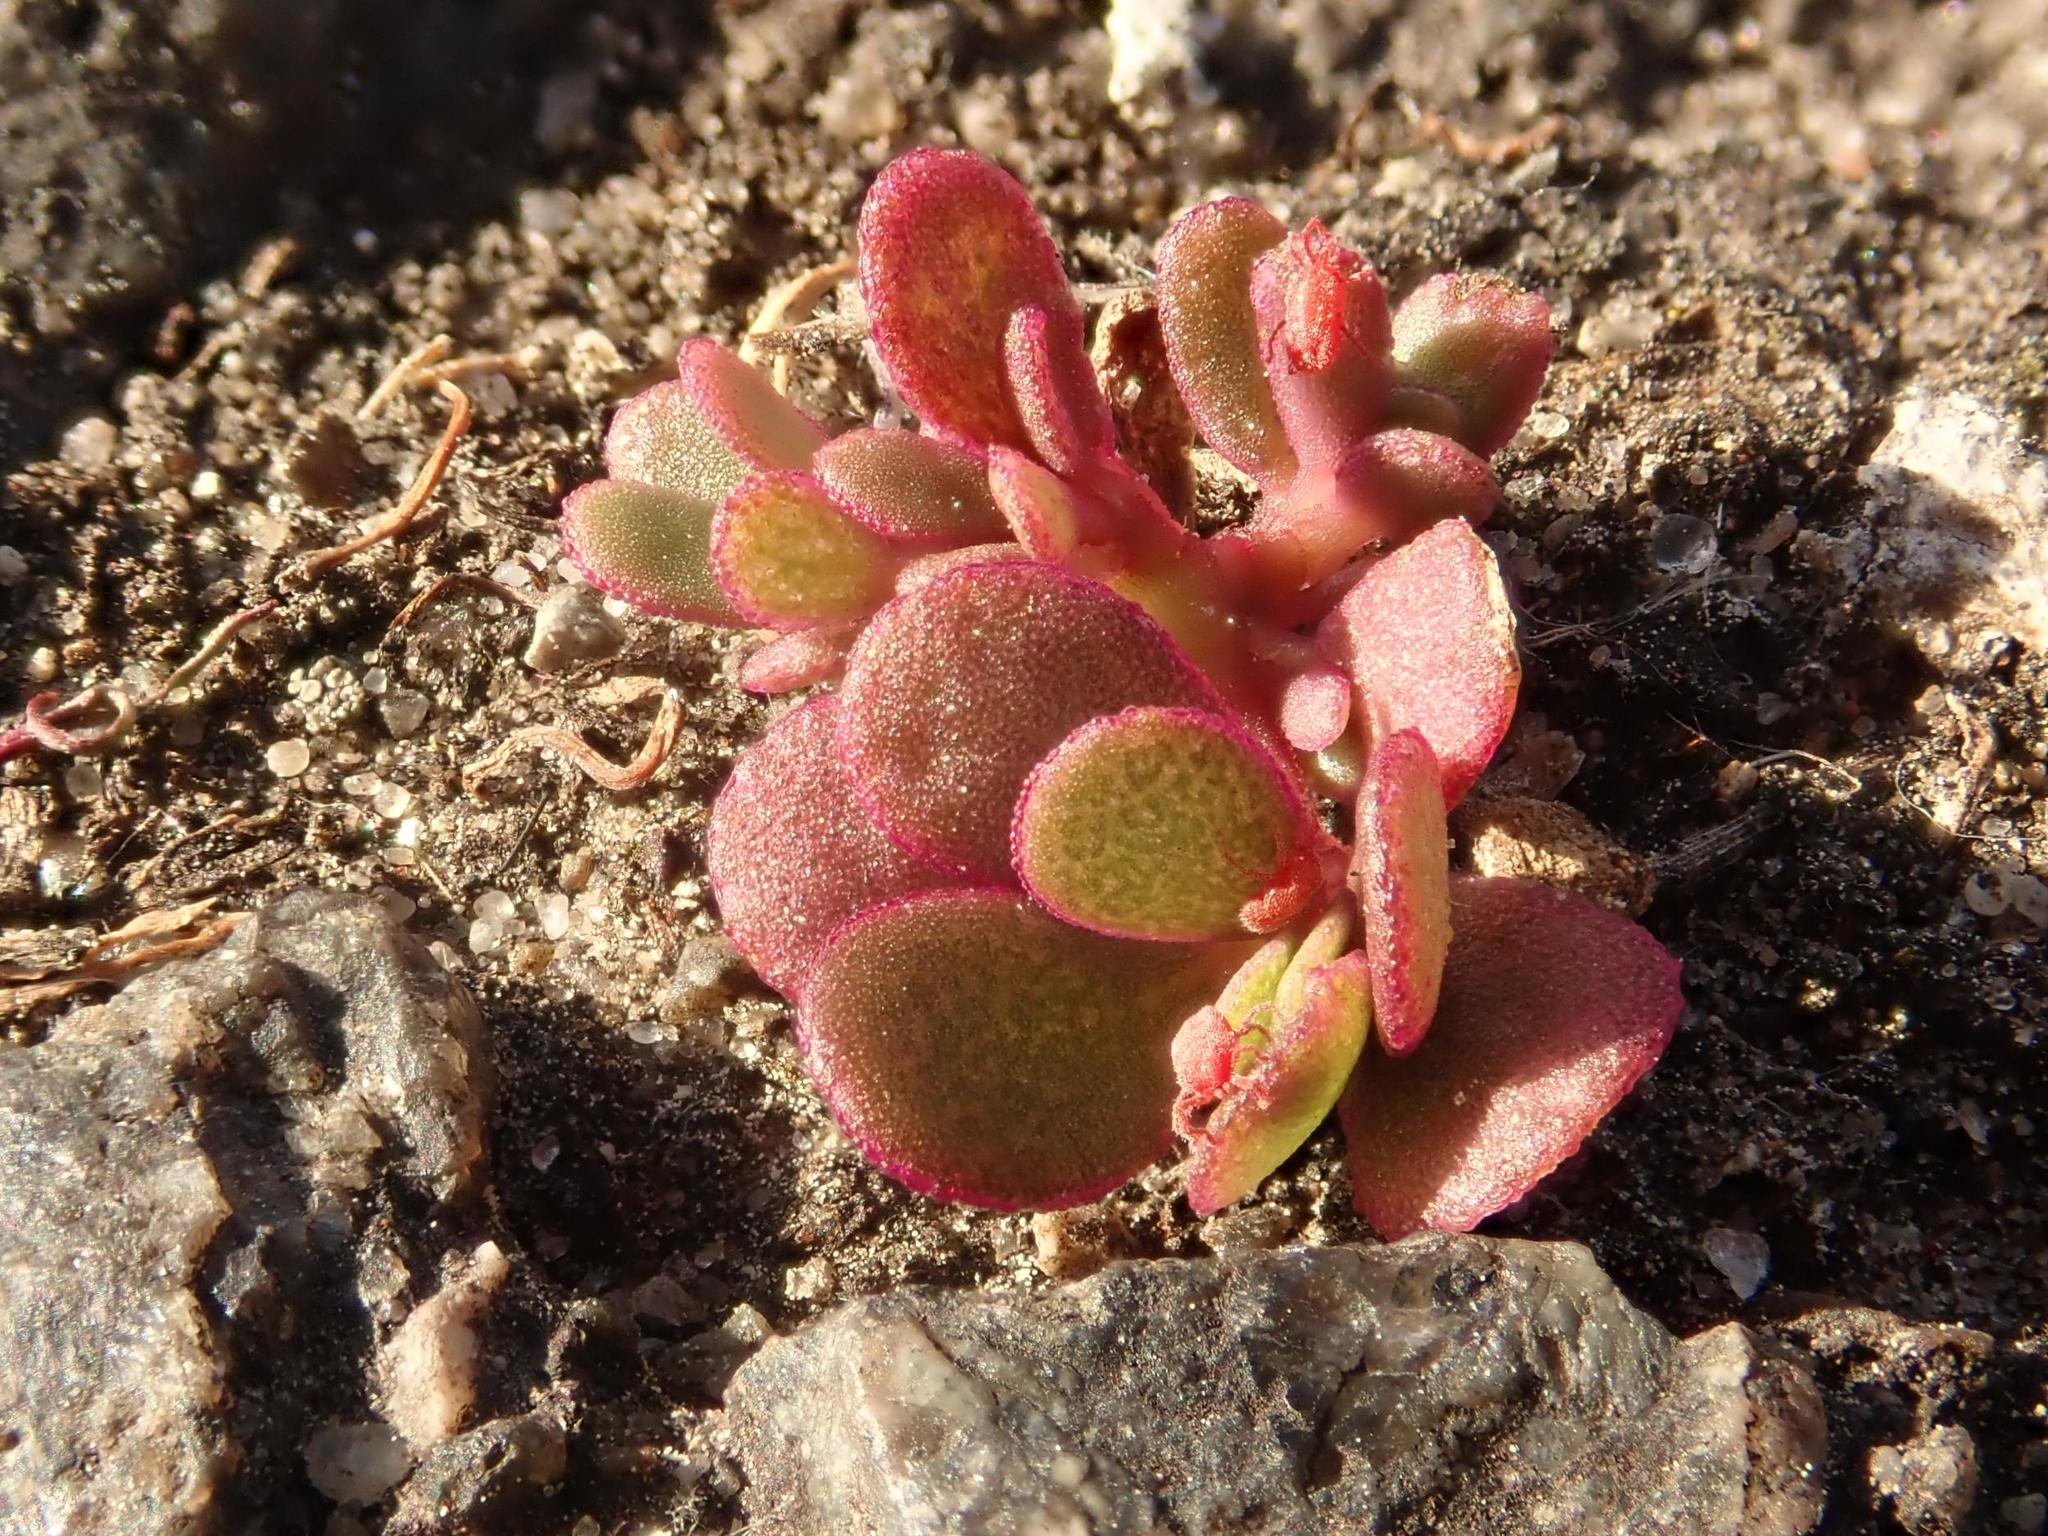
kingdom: Plantae
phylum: Tracheophyta
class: Magnoliopsida
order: Caryophyllales
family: Portulacaceae
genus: Portulaca
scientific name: Portulaca oleracea
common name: Common purslane
